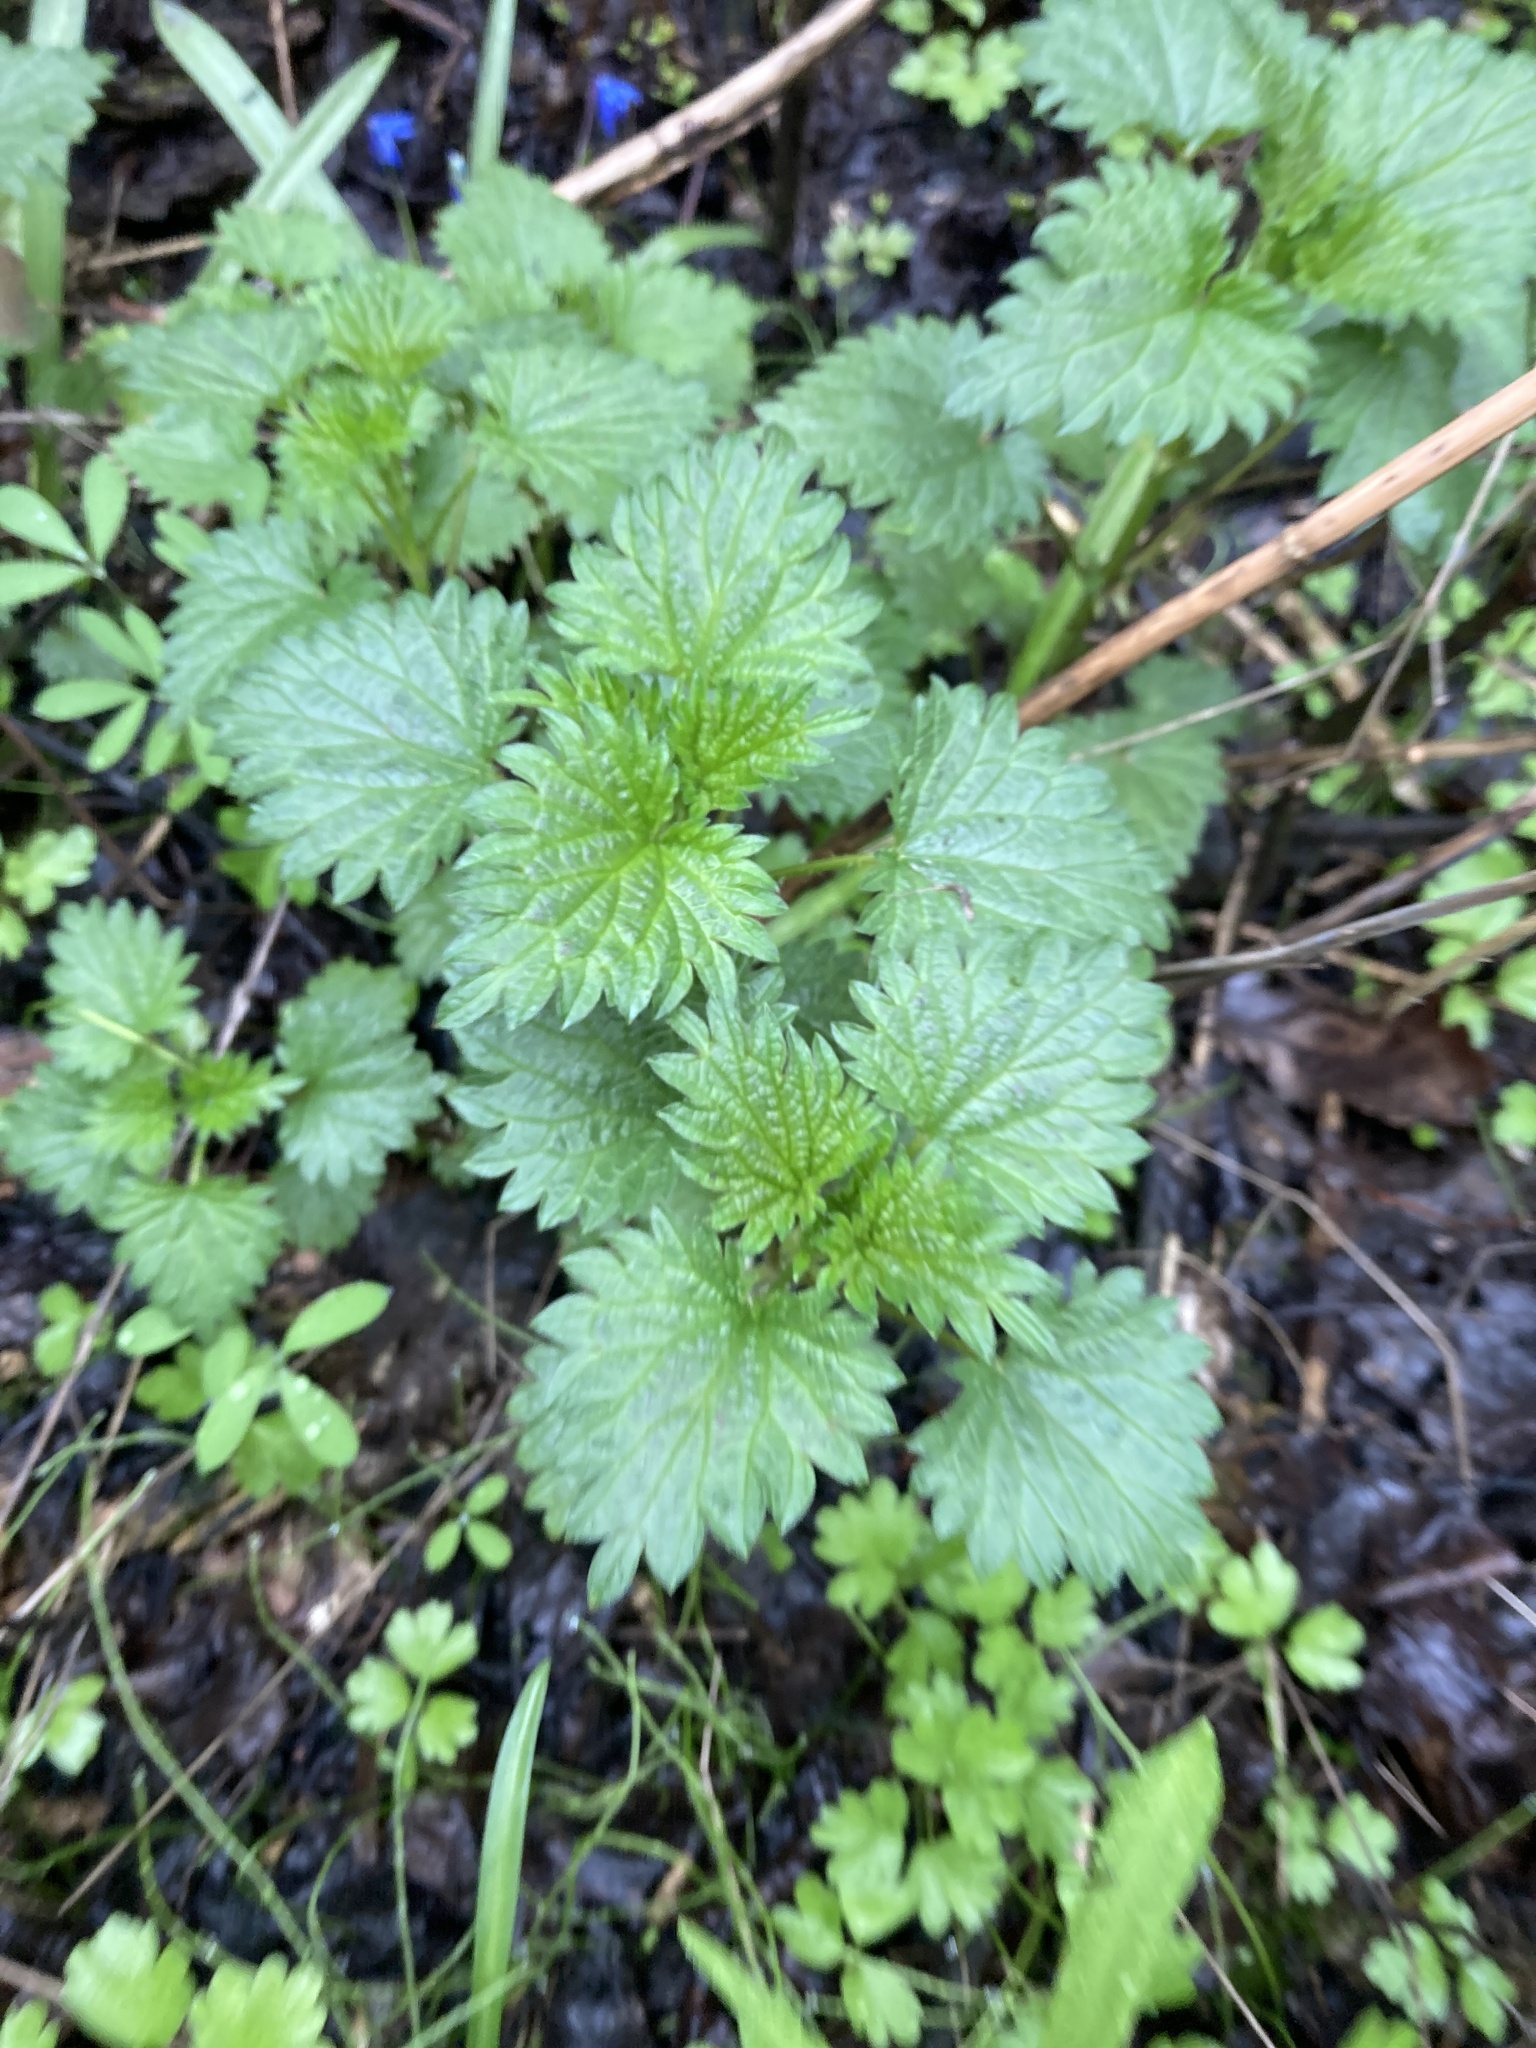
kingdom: Plantae
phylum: Tracheophyta
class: Magnoliopsida
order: Rosales
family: Urticaceae
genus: Urtica
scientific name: Urtica dioica
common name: Common nettle
